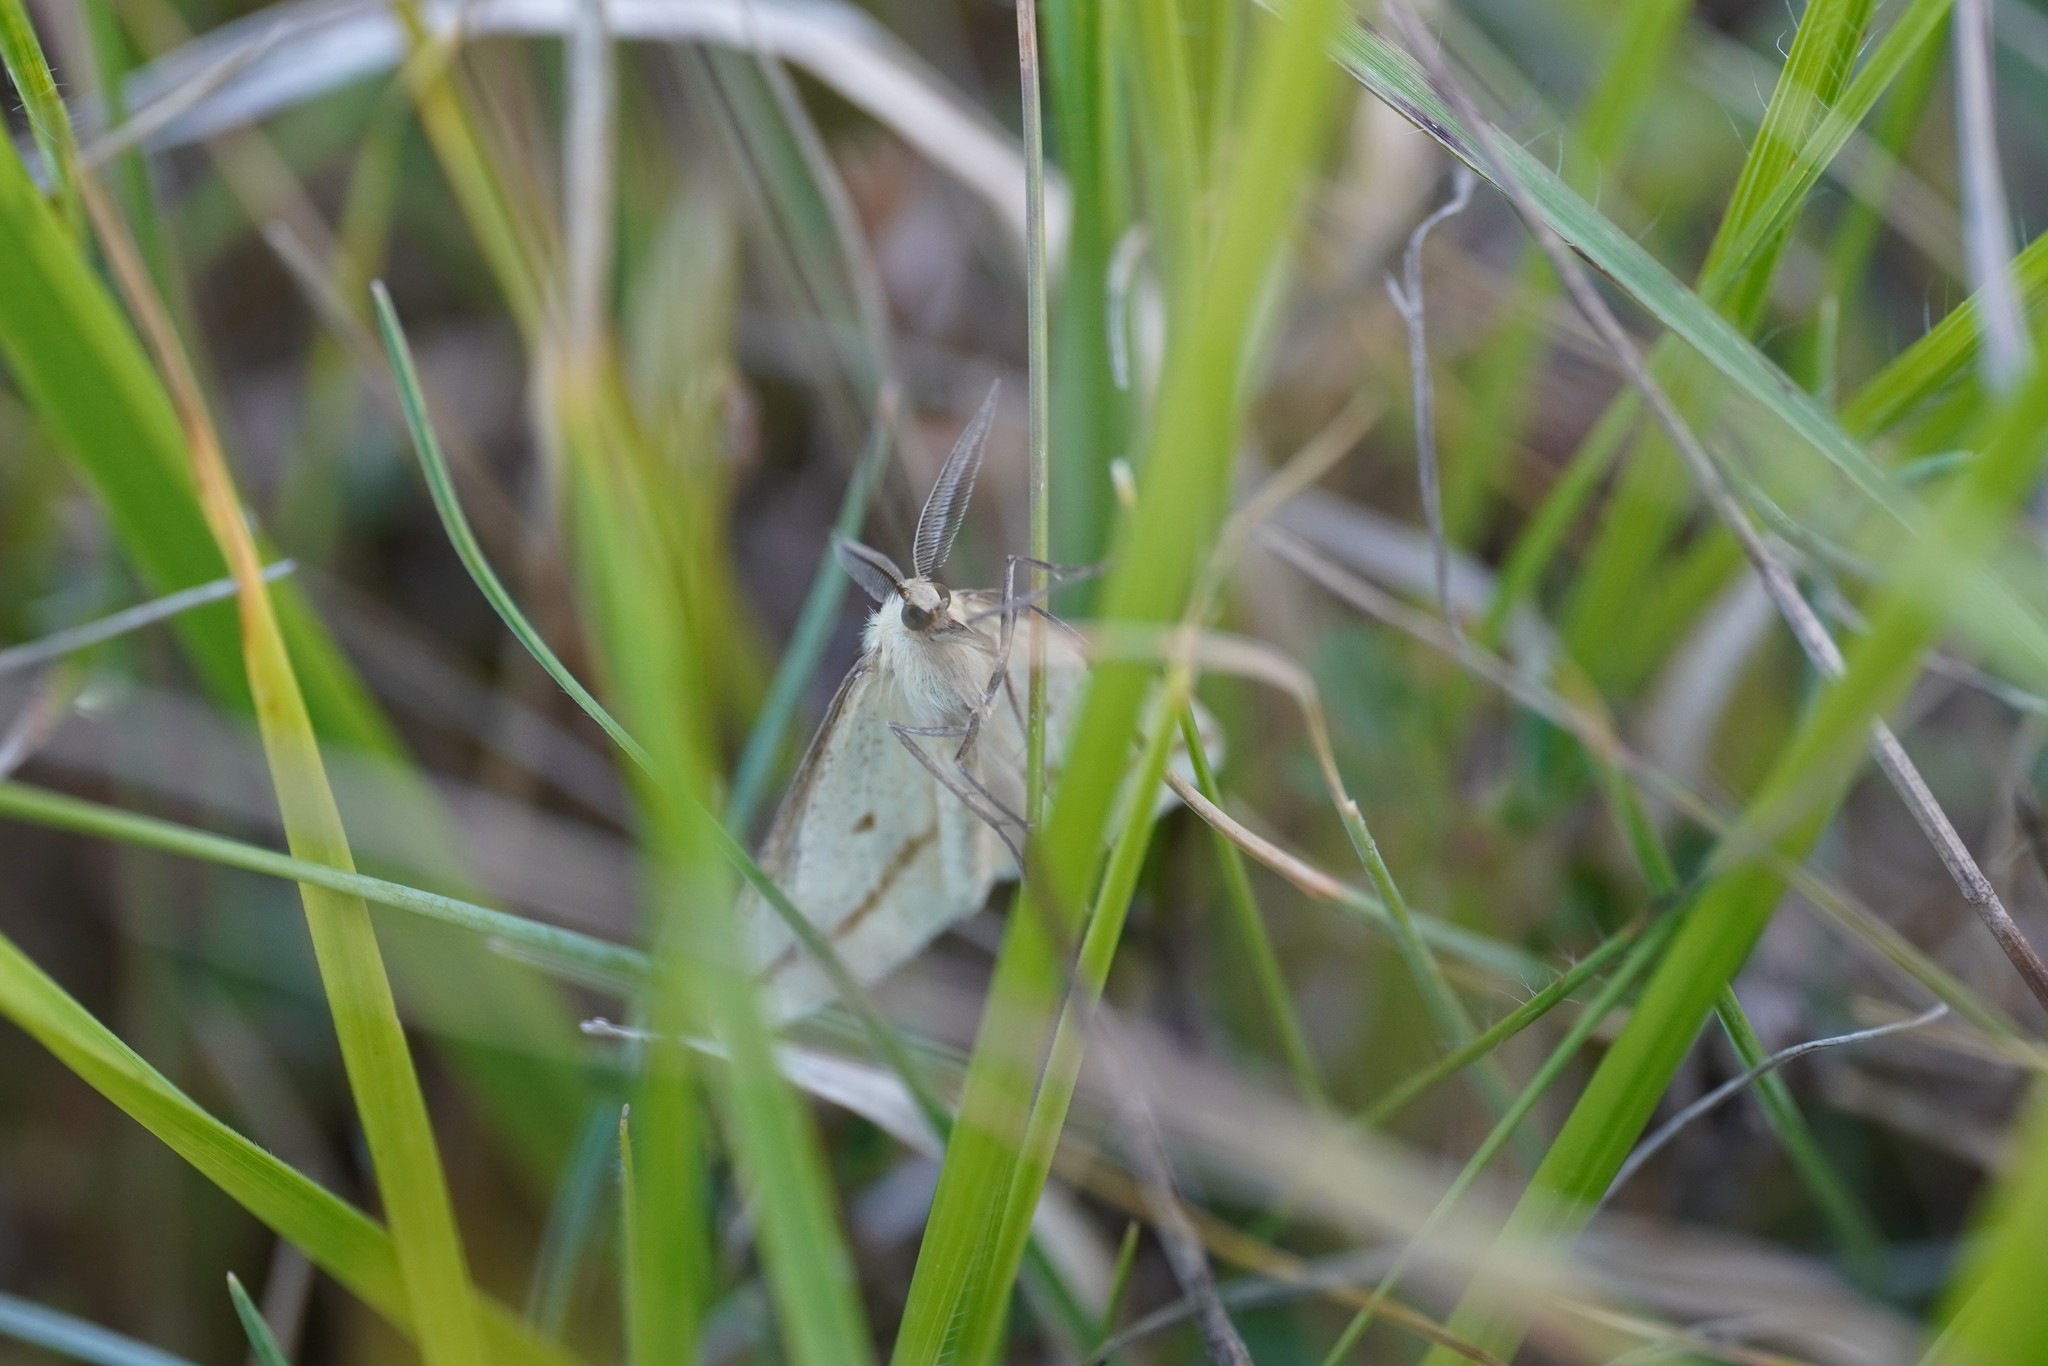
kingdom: Animalia
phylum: Arthropoda
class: Insecta
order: Lepidoptera
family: Geometridae
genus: Aspitates
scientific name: Aspitates gilvaria
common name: Straw belle
